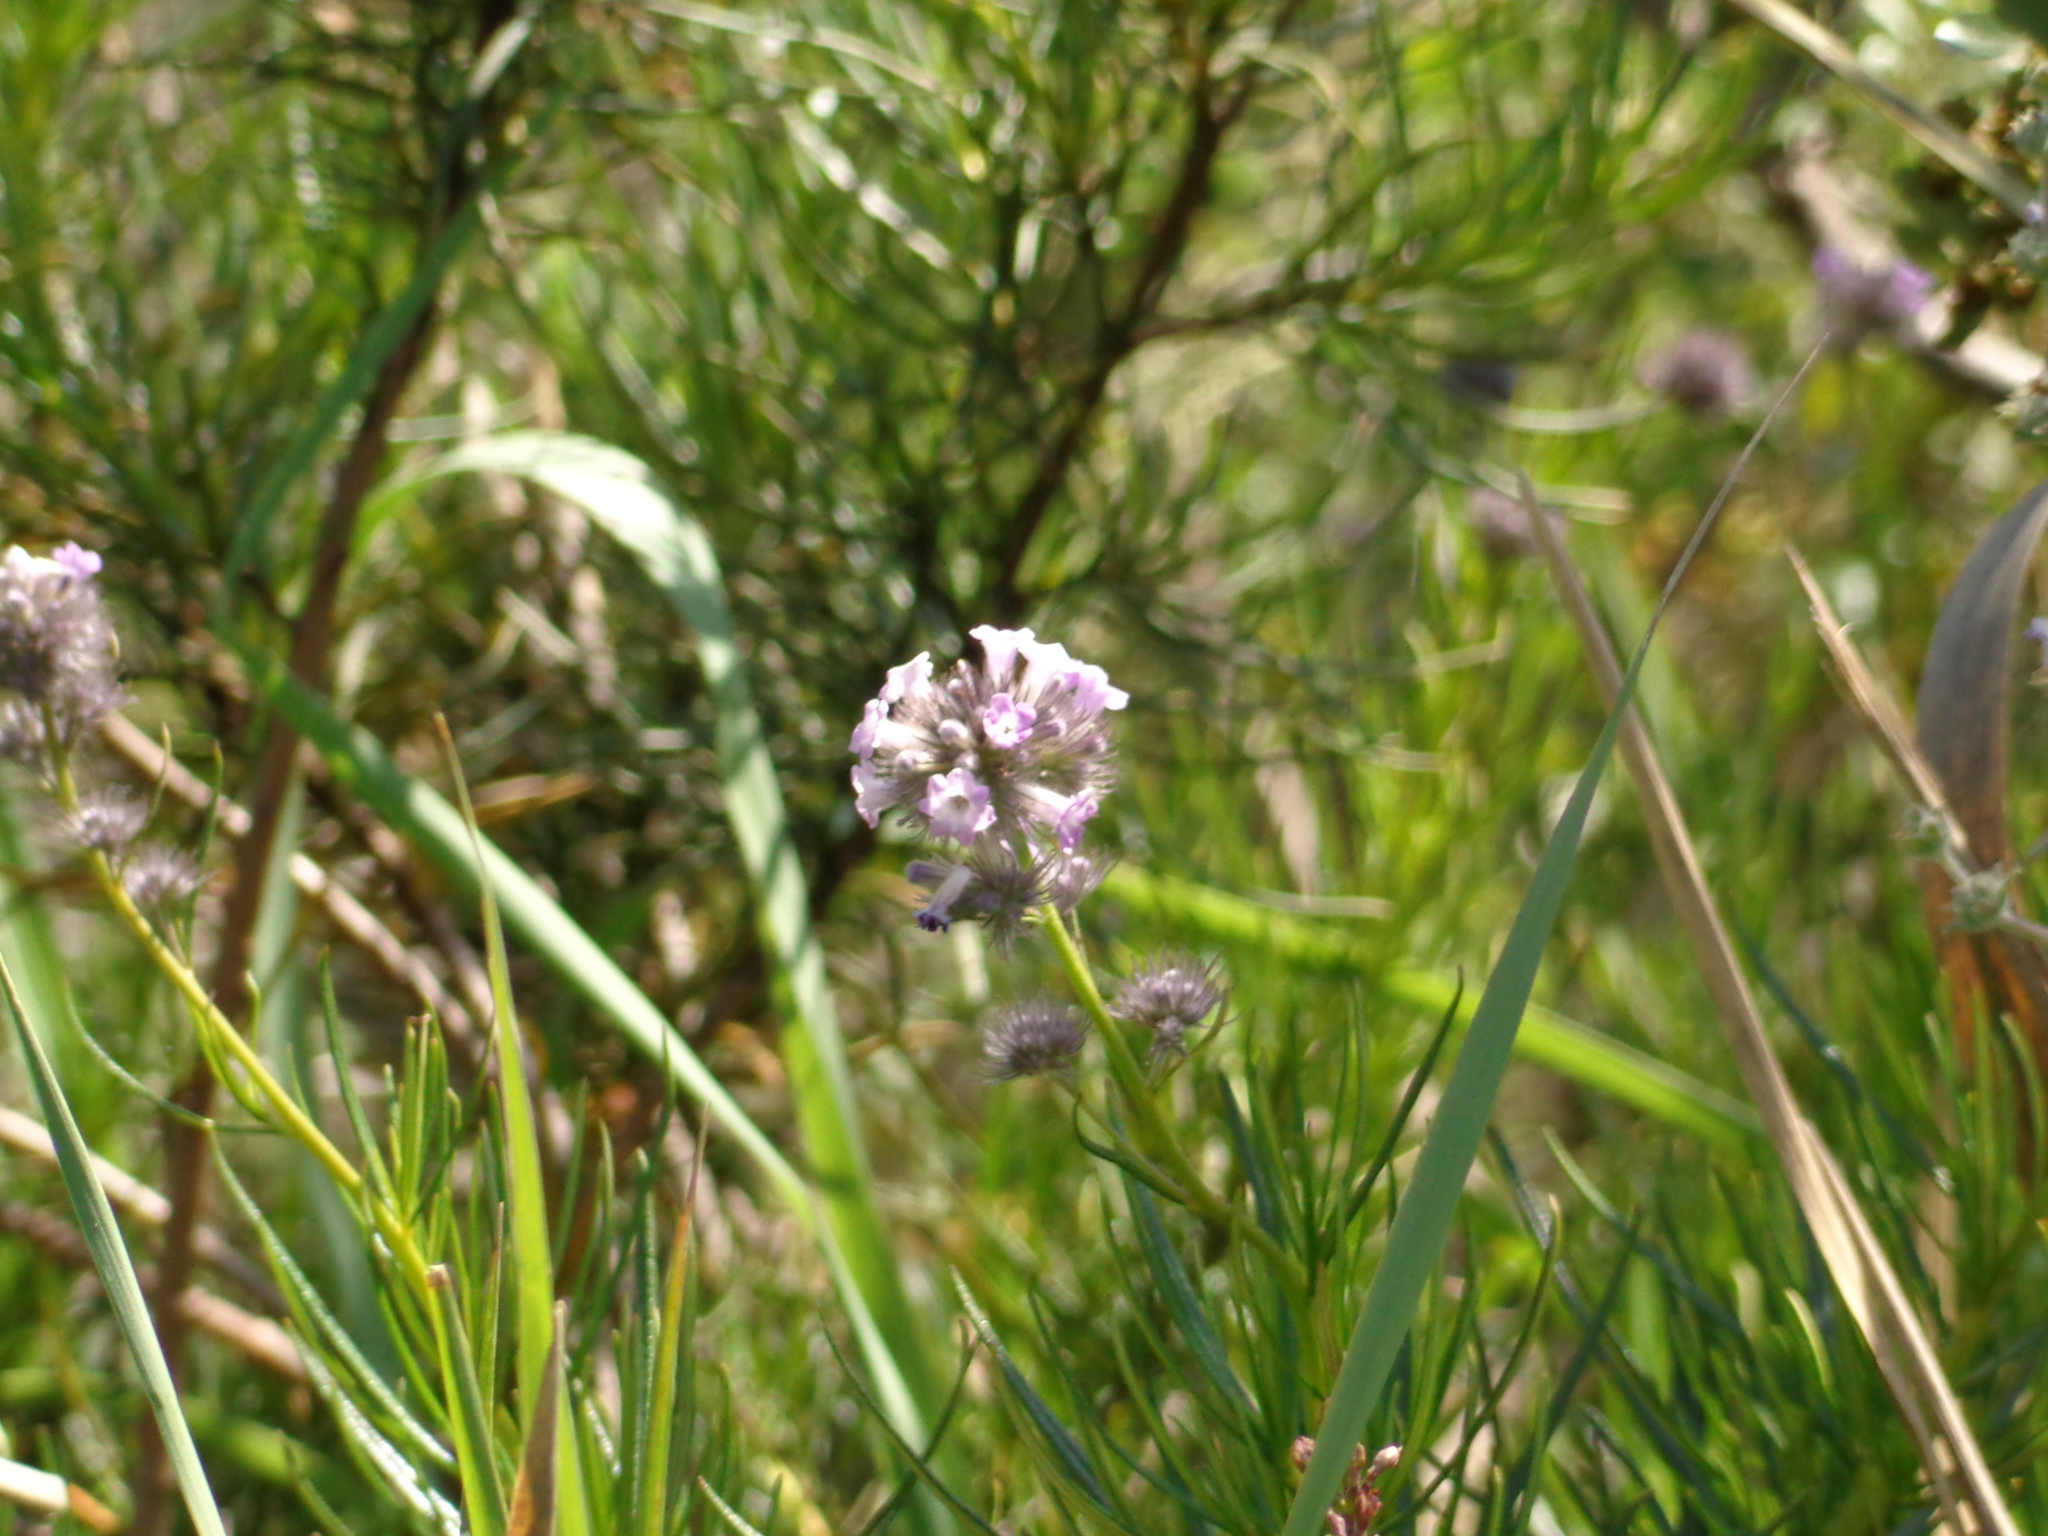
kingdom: Plantae
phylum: Tracheophyta
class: Magnoliopsida
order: Boraginales
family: Namaceae
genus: Eriodictyon
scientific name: Eriodictyon capitatum
